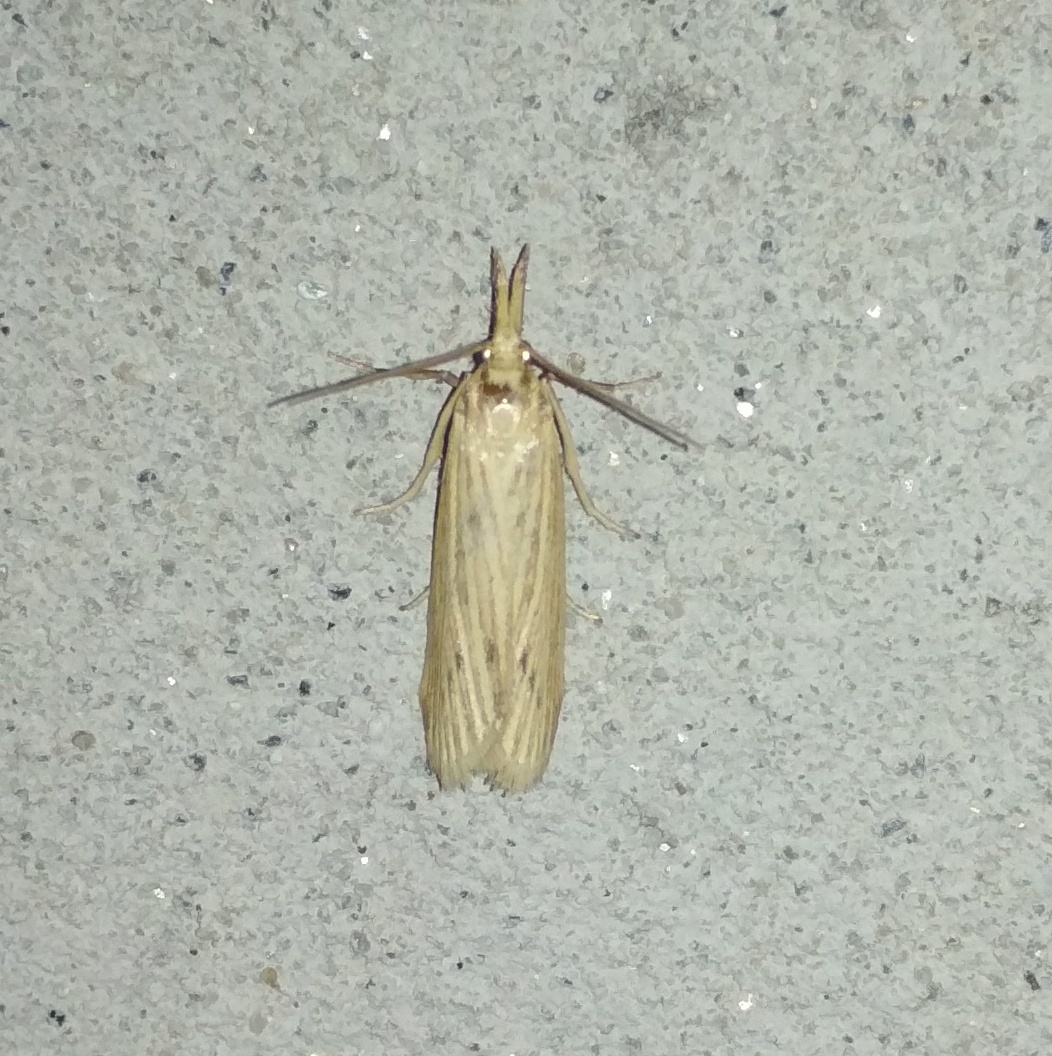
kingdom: Animalia
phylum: Arthropoda
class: Insecta
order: Lepidoptera
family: Pyralidae
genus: Ematheudes
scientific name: Ematheudes punctellus
